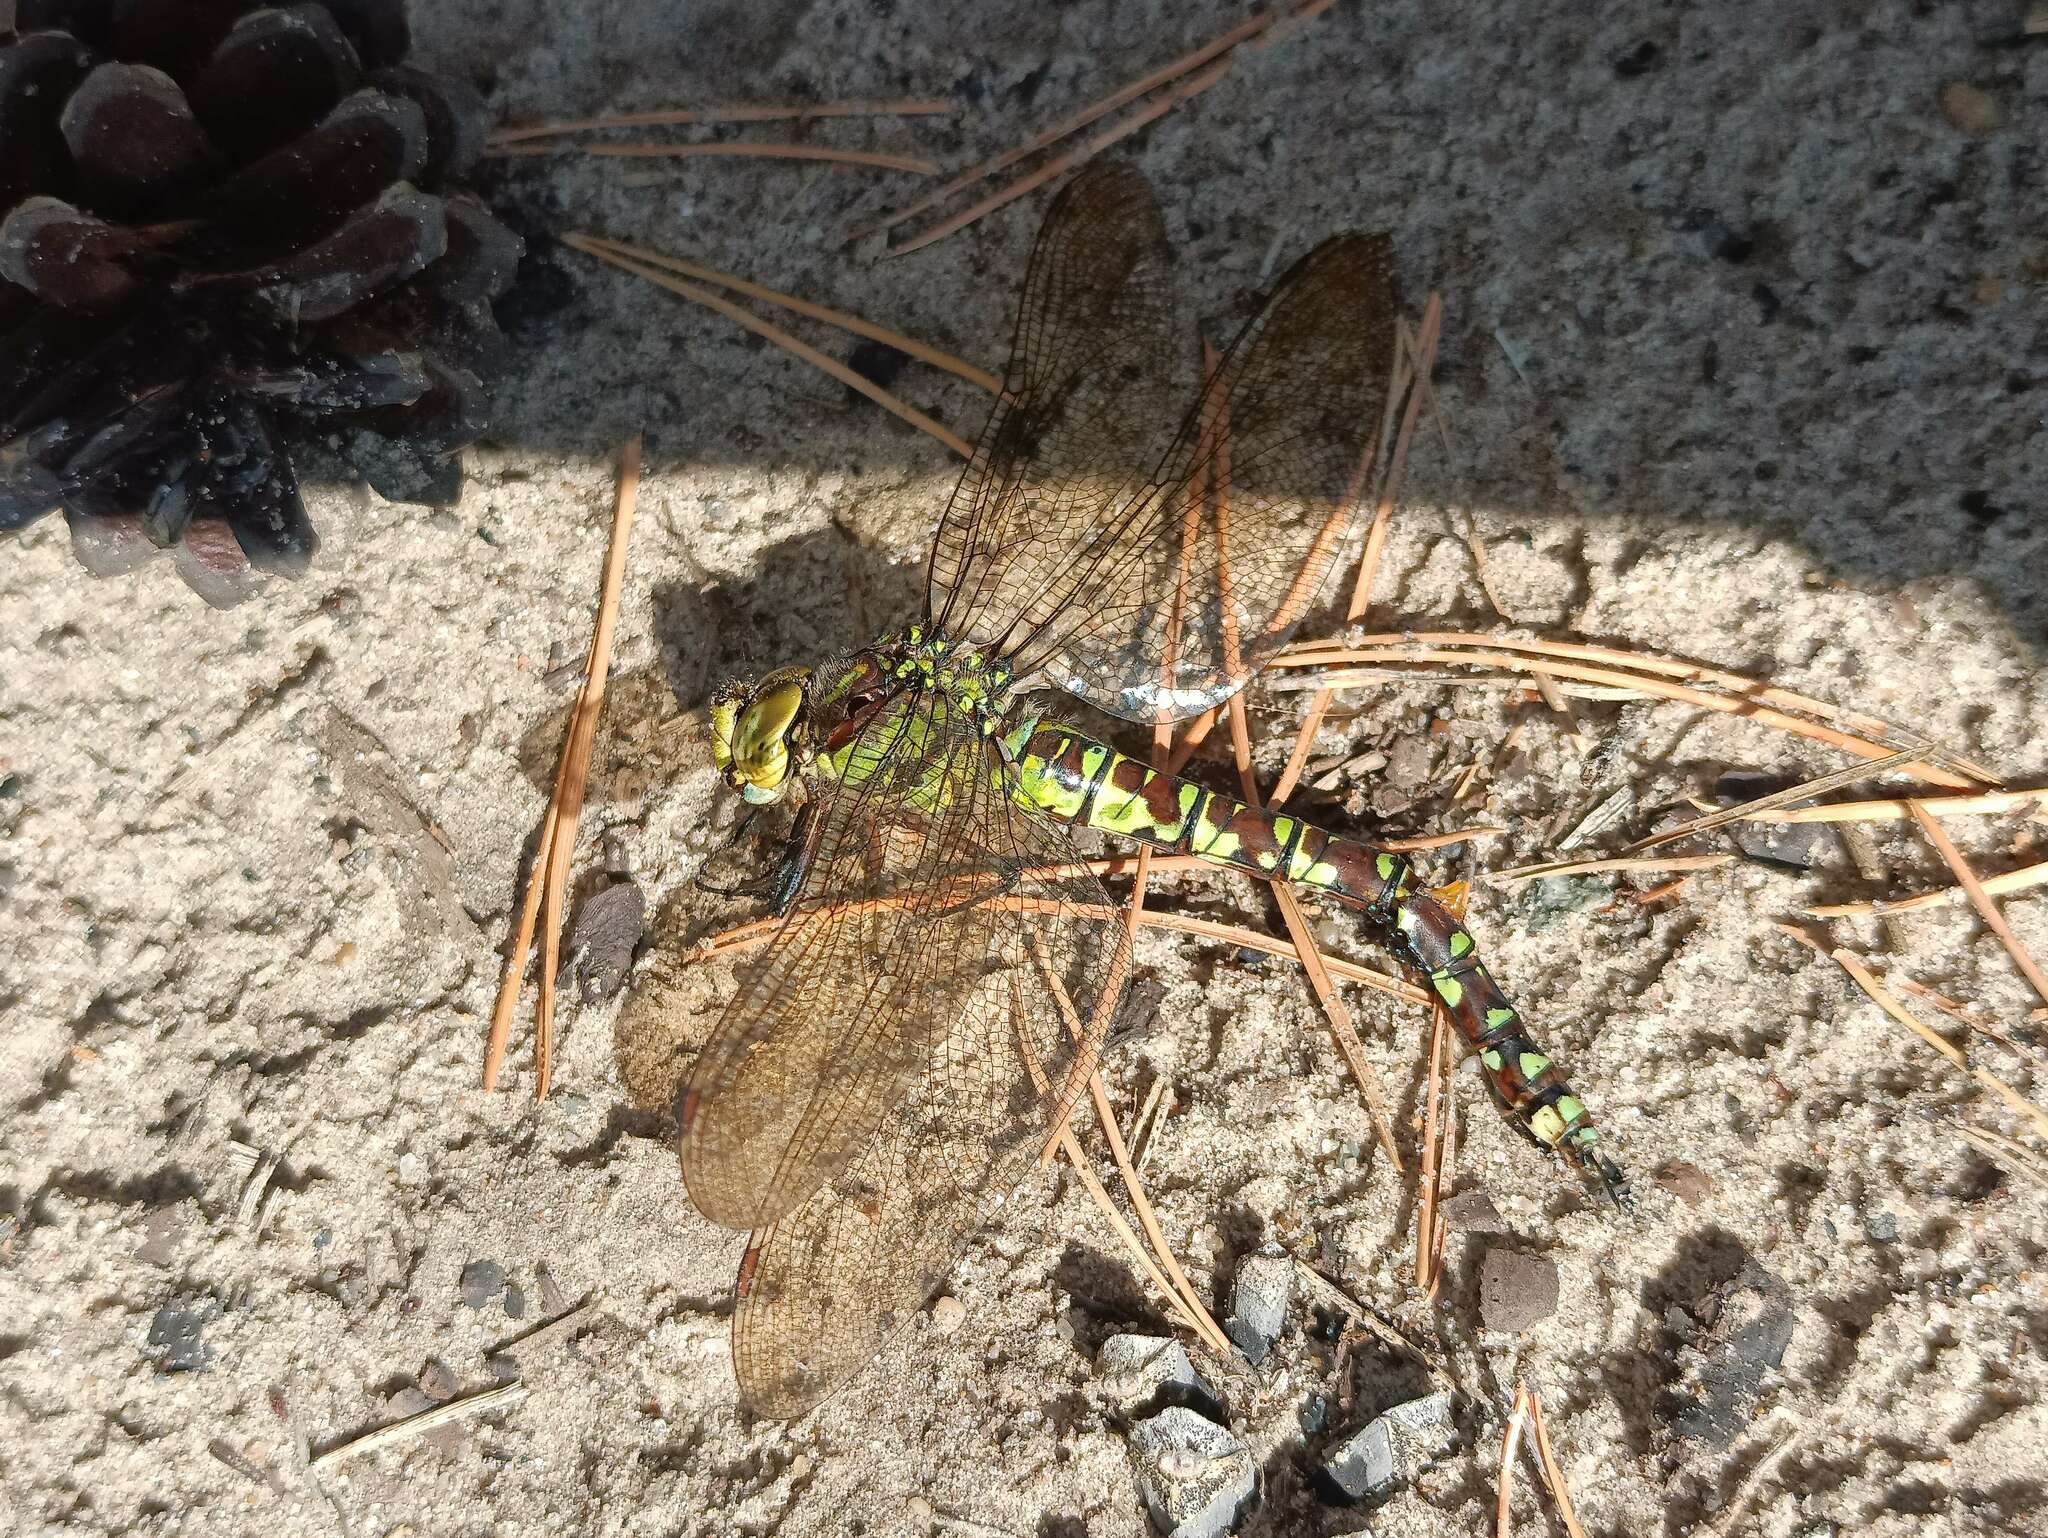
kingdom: Animalia
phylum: Arthropoda
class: Insecta
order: Odonata
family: Aeshnidae
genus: Aeshna
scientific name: Aeshna cyanea
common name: Southern hawker
